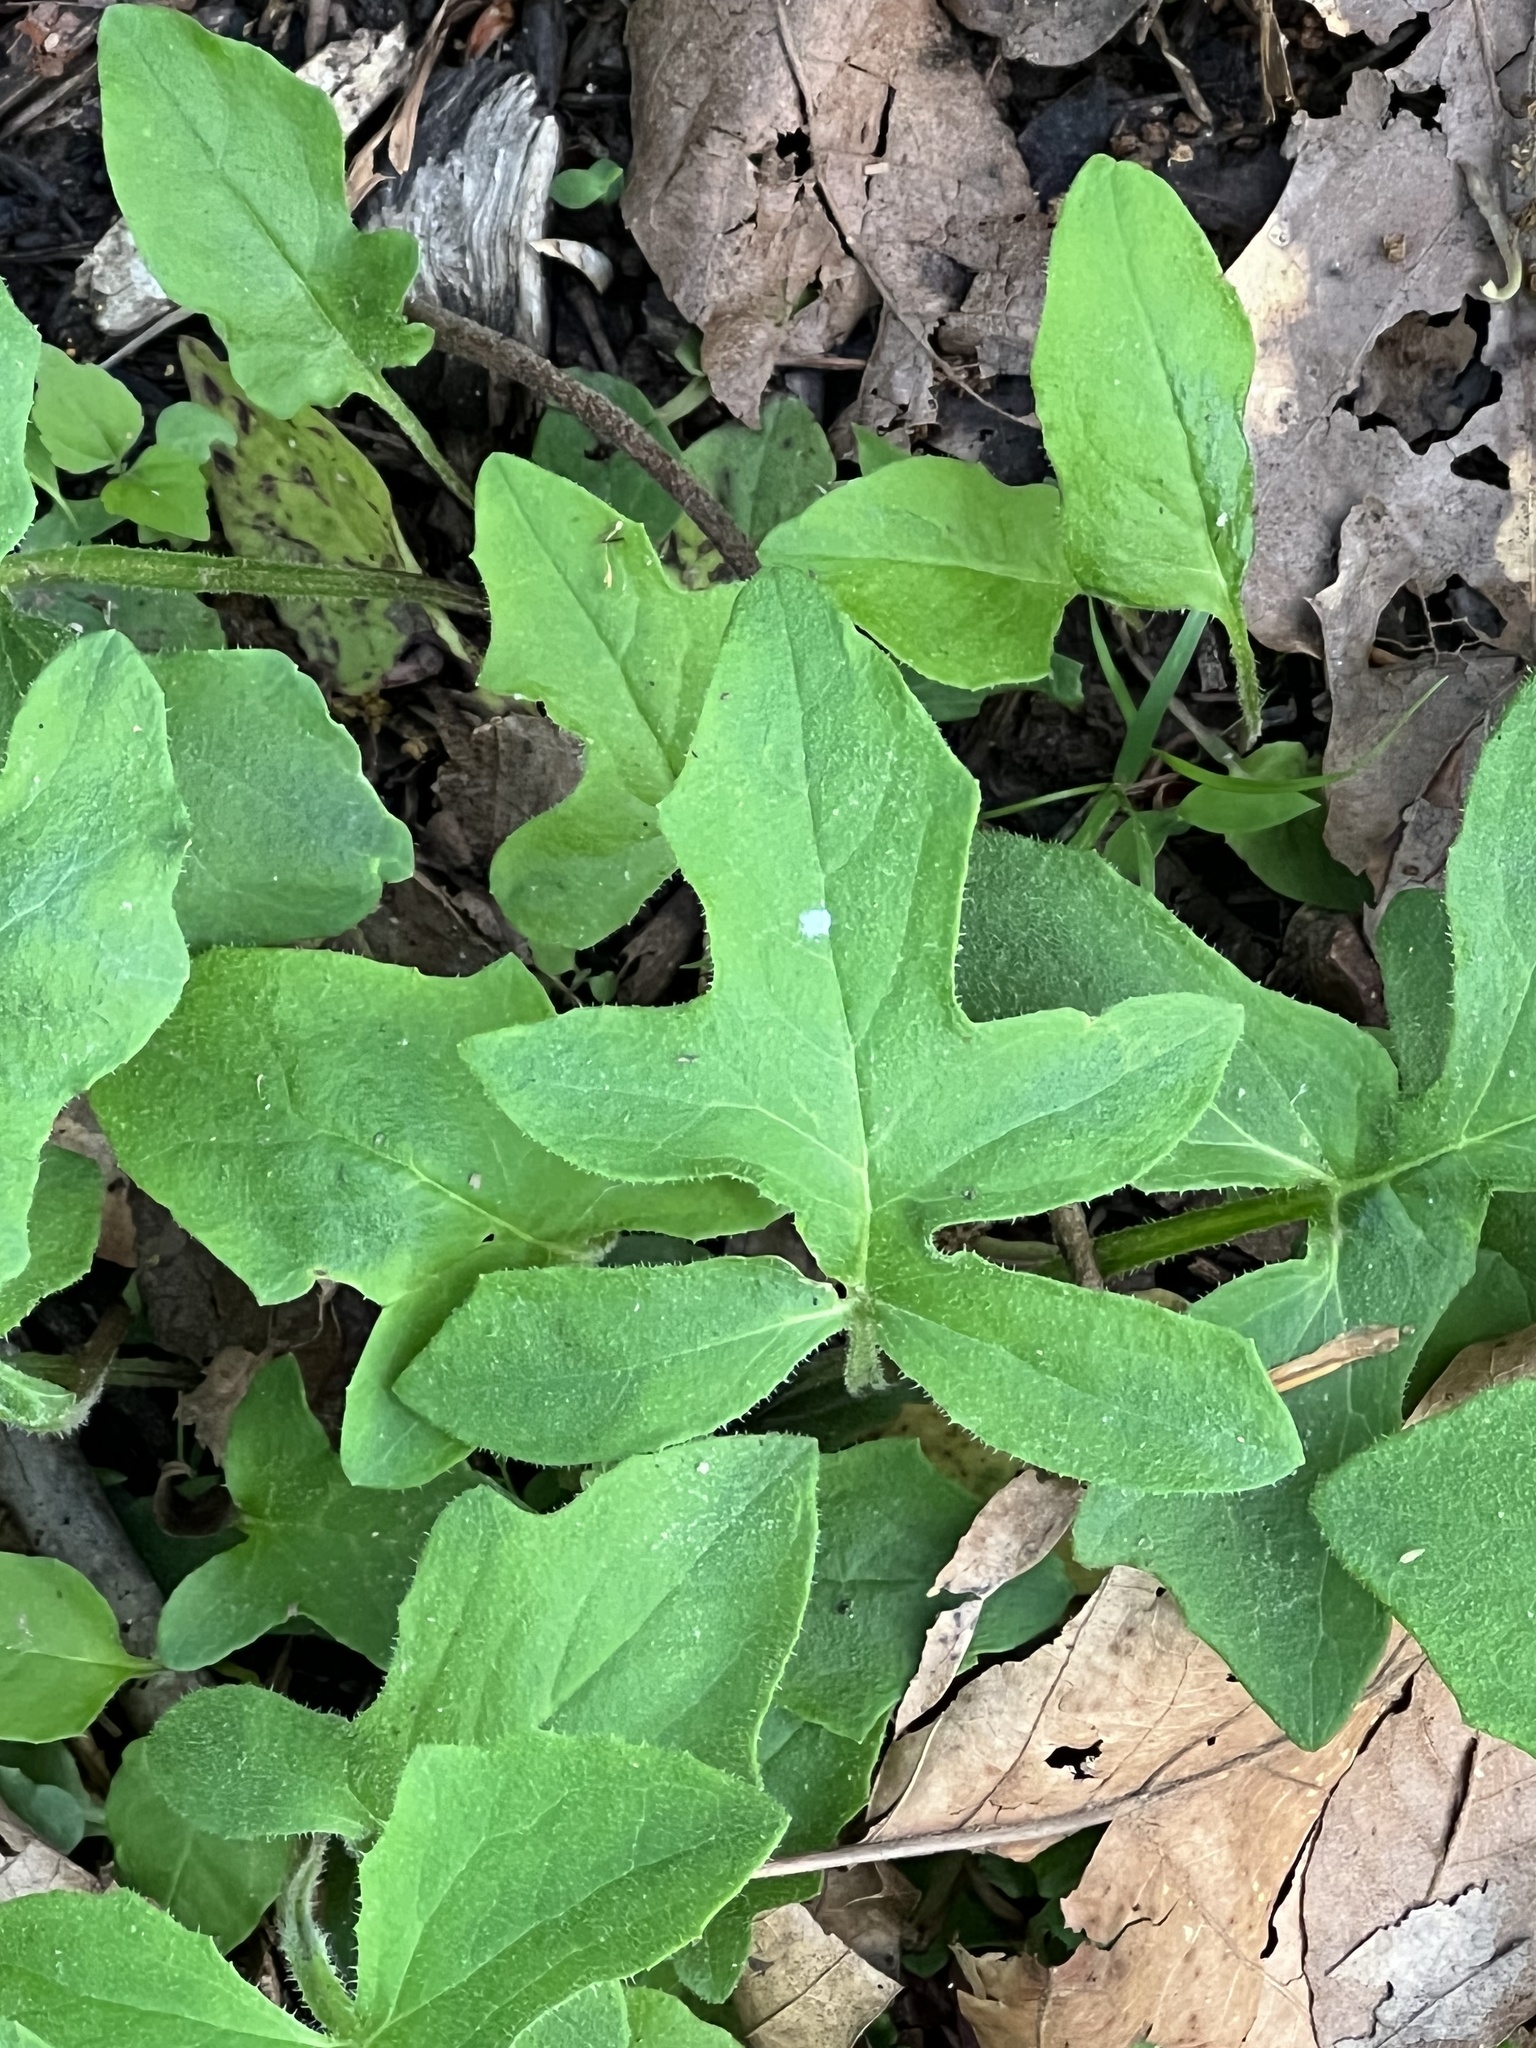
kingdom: Plantae
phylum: Tracheophyta
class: Magnoliopsida
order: Asterales
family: Asteraceae
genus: Nabalus
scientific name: Nabalus serpentarius
